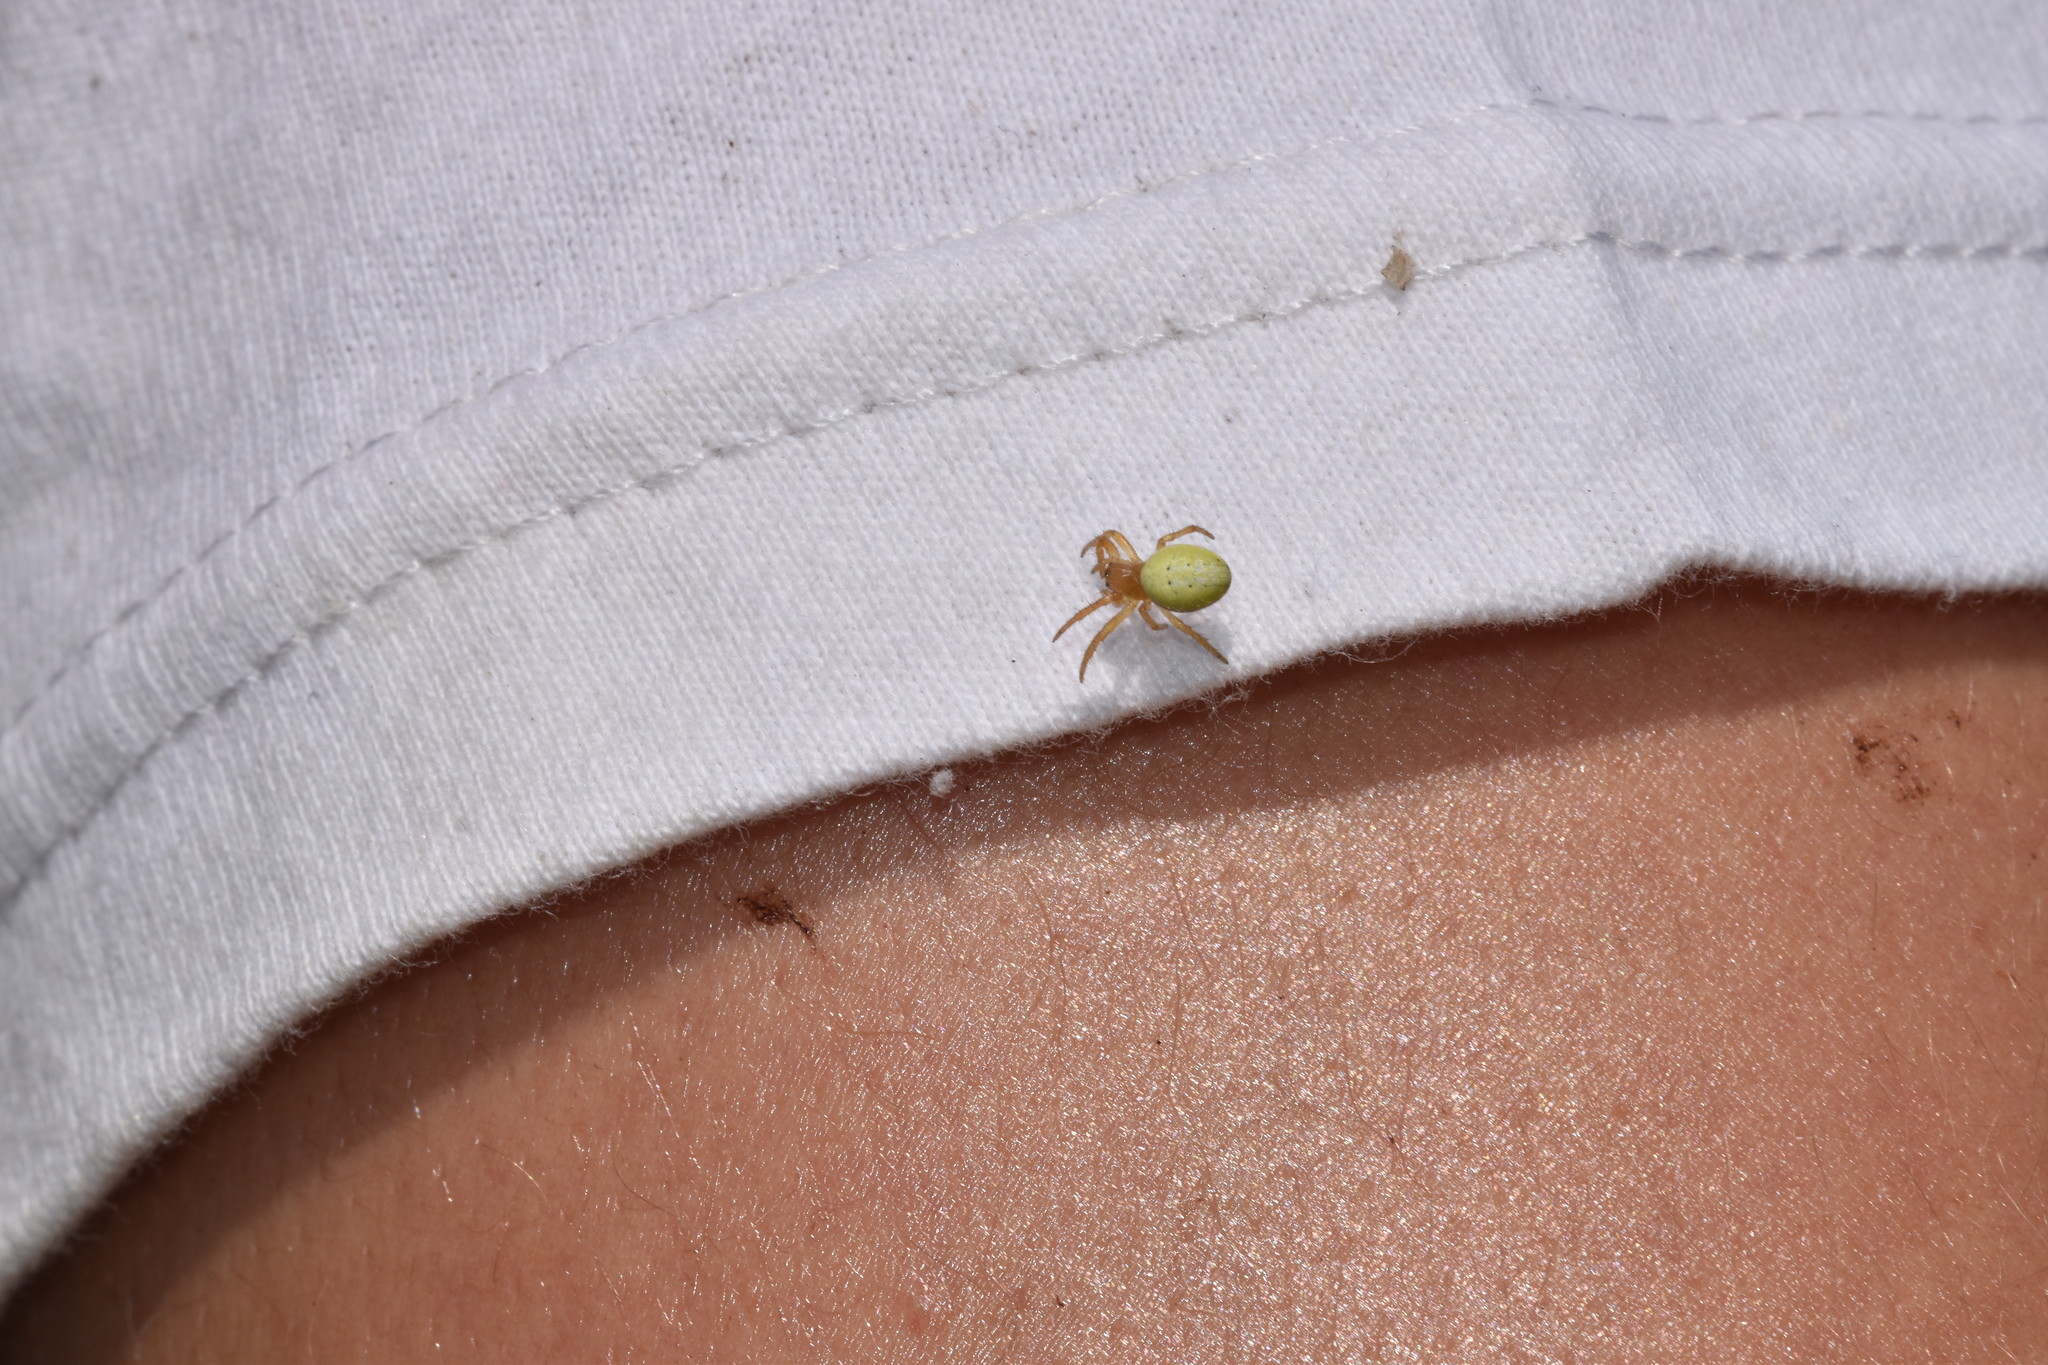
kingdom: Animalia
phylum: Arthropoda
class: Arachnida
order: Araneae
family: Araneidae
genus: Araniella
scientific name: Araniella
